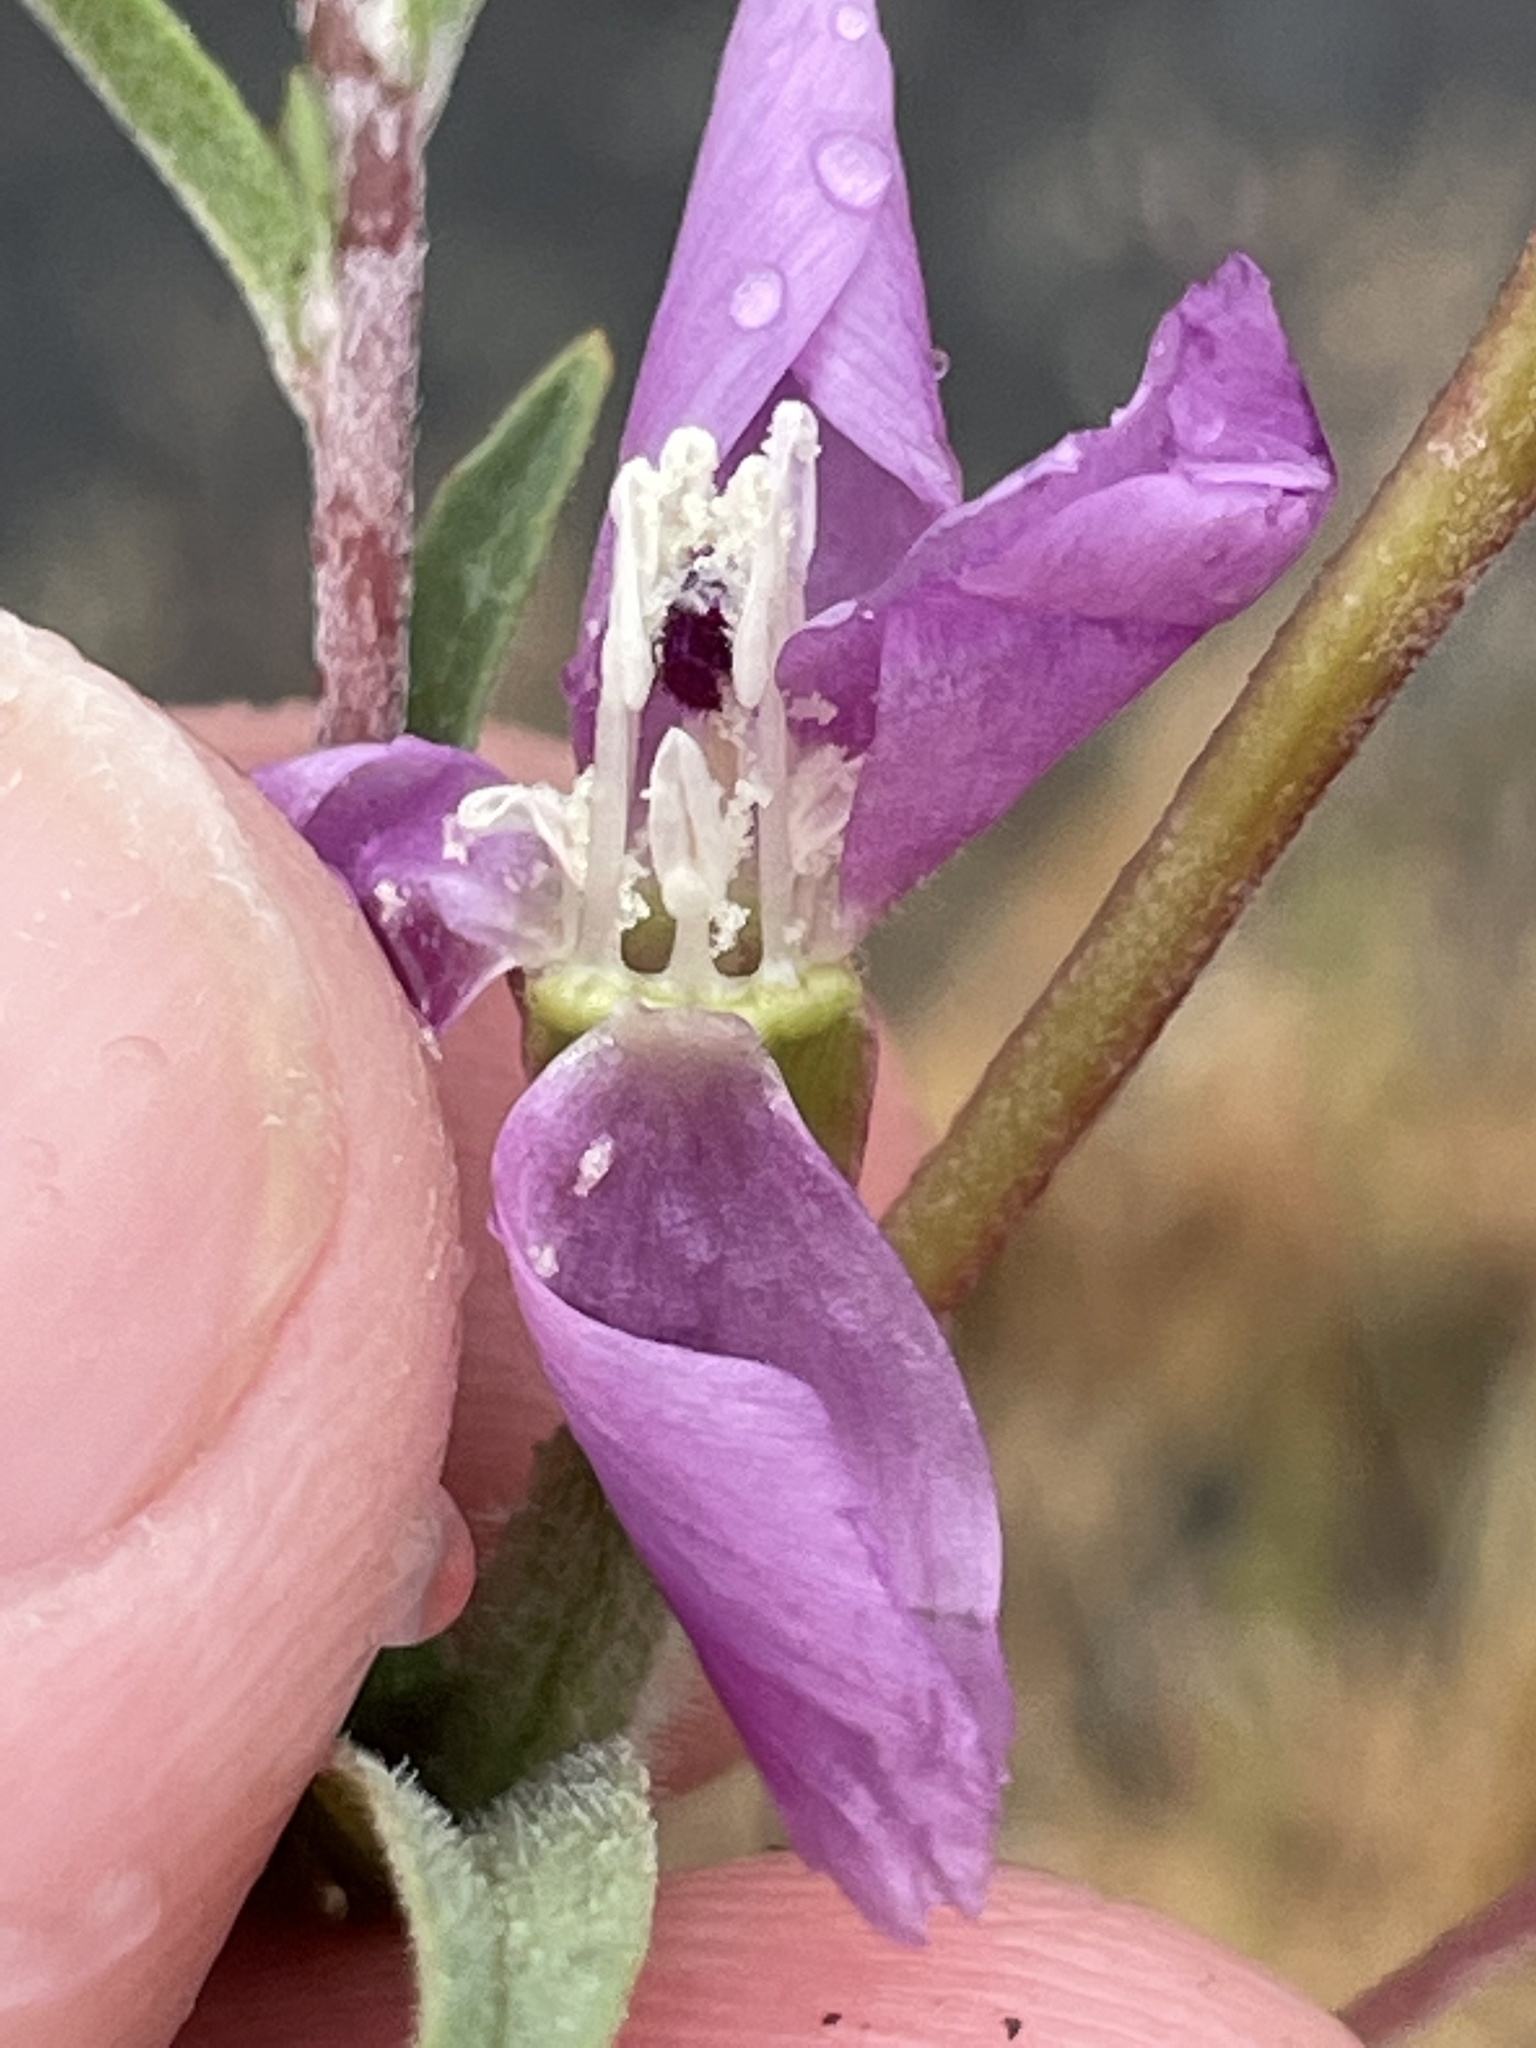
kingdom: Plantae
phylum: Tracheophyta
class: Magnoliopsida
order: Myrtales
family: Onagraceae
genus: Clarkia
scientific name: Clarkia purpurea
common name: Purple clarkia
